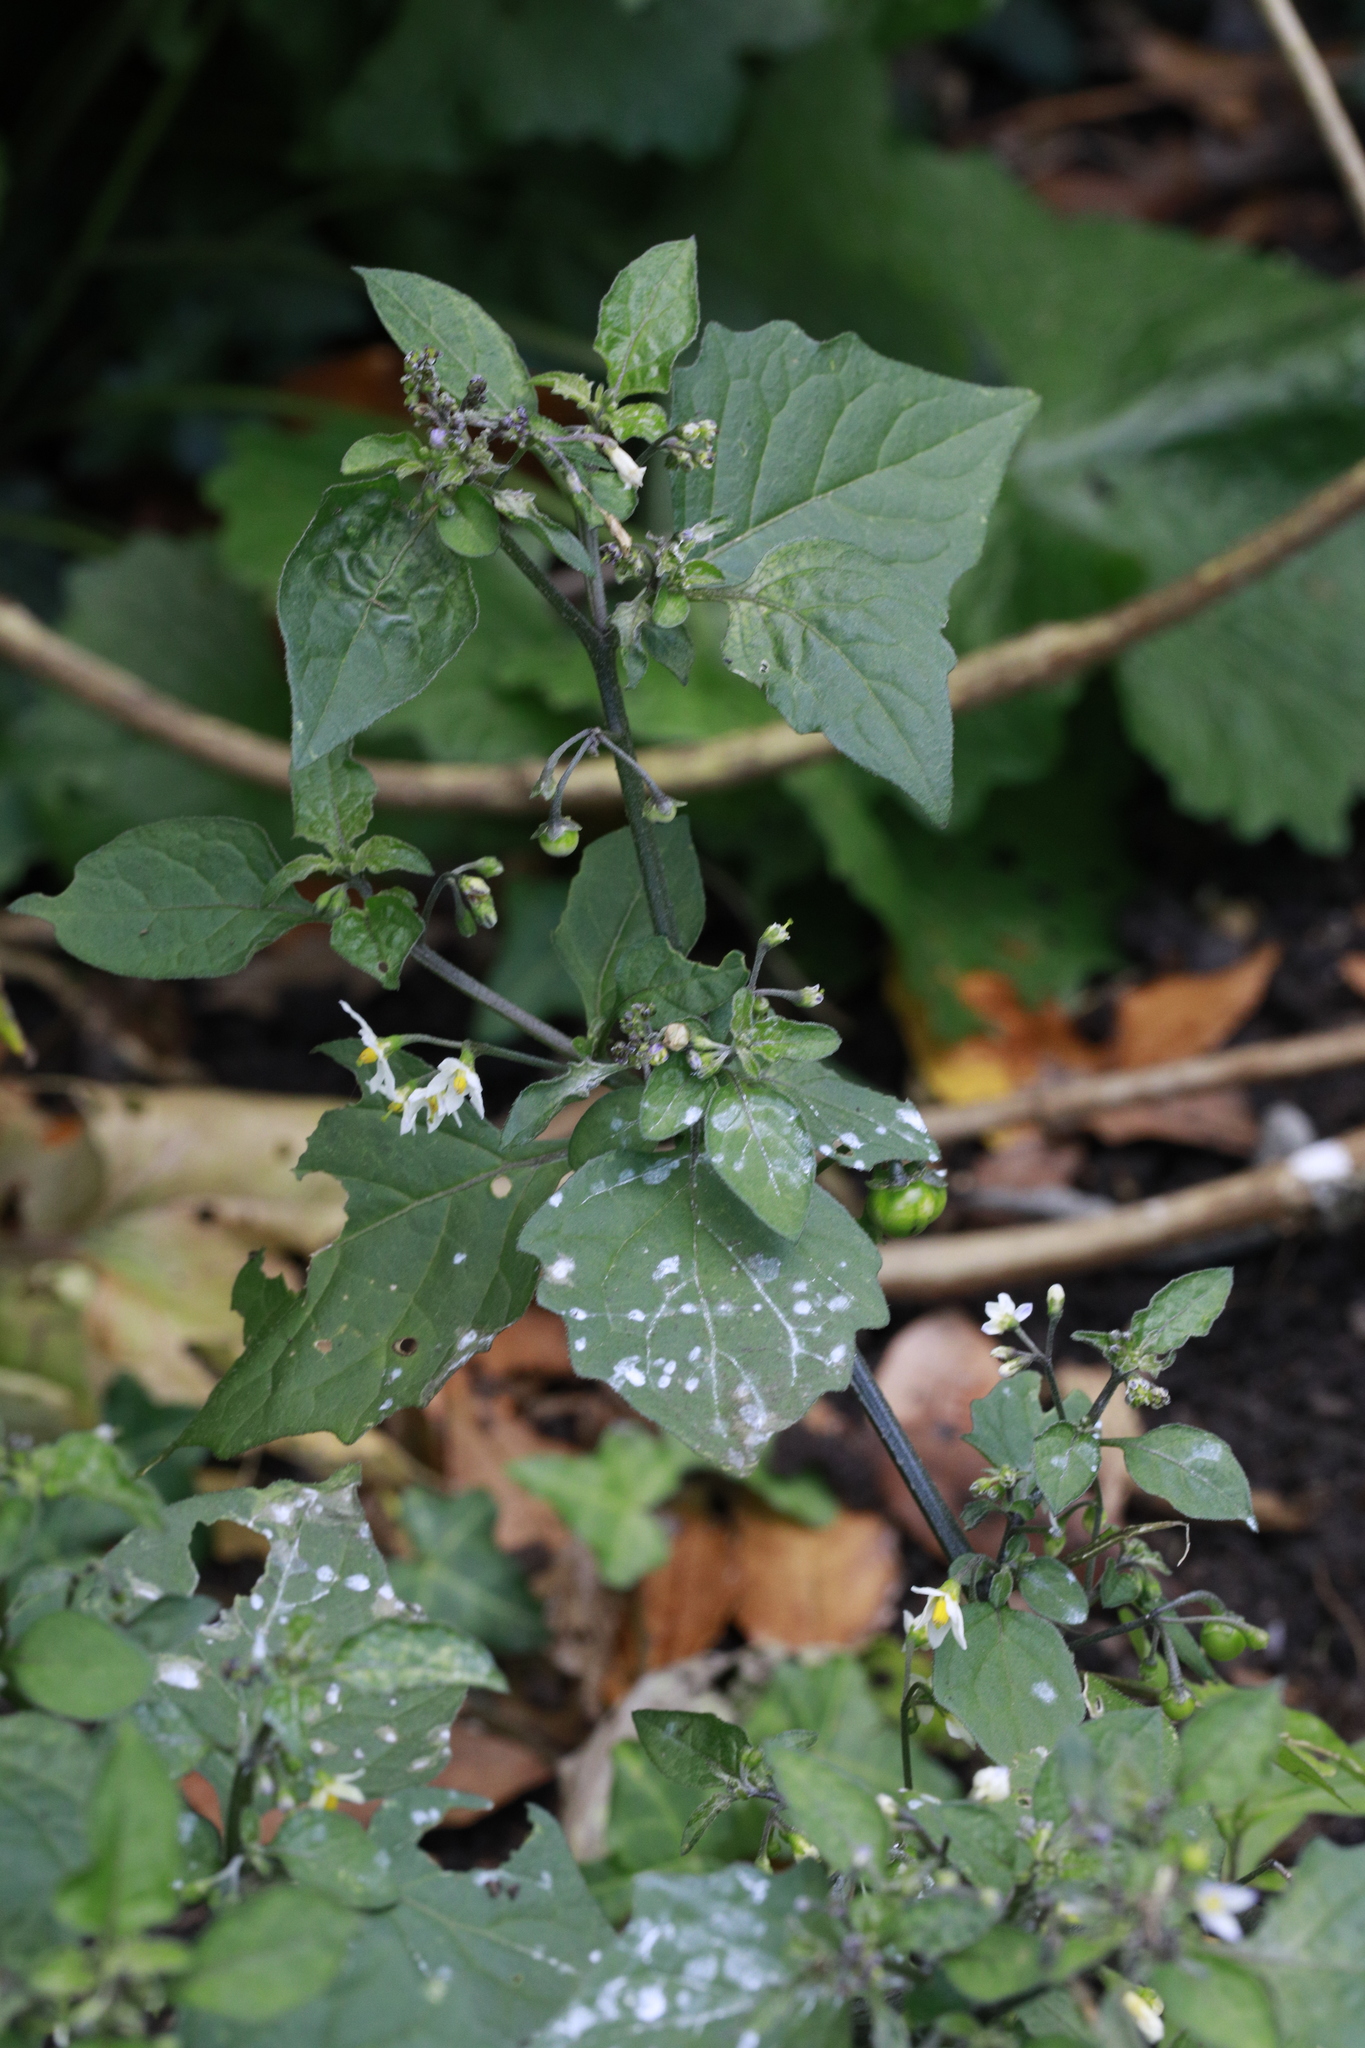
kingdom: Plantae
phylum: Tracheophyta
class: Magnoliopsida
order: Solanales
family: Solanaceae
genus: Solanum
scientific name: Solanum nigrum
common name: Black nightshade
